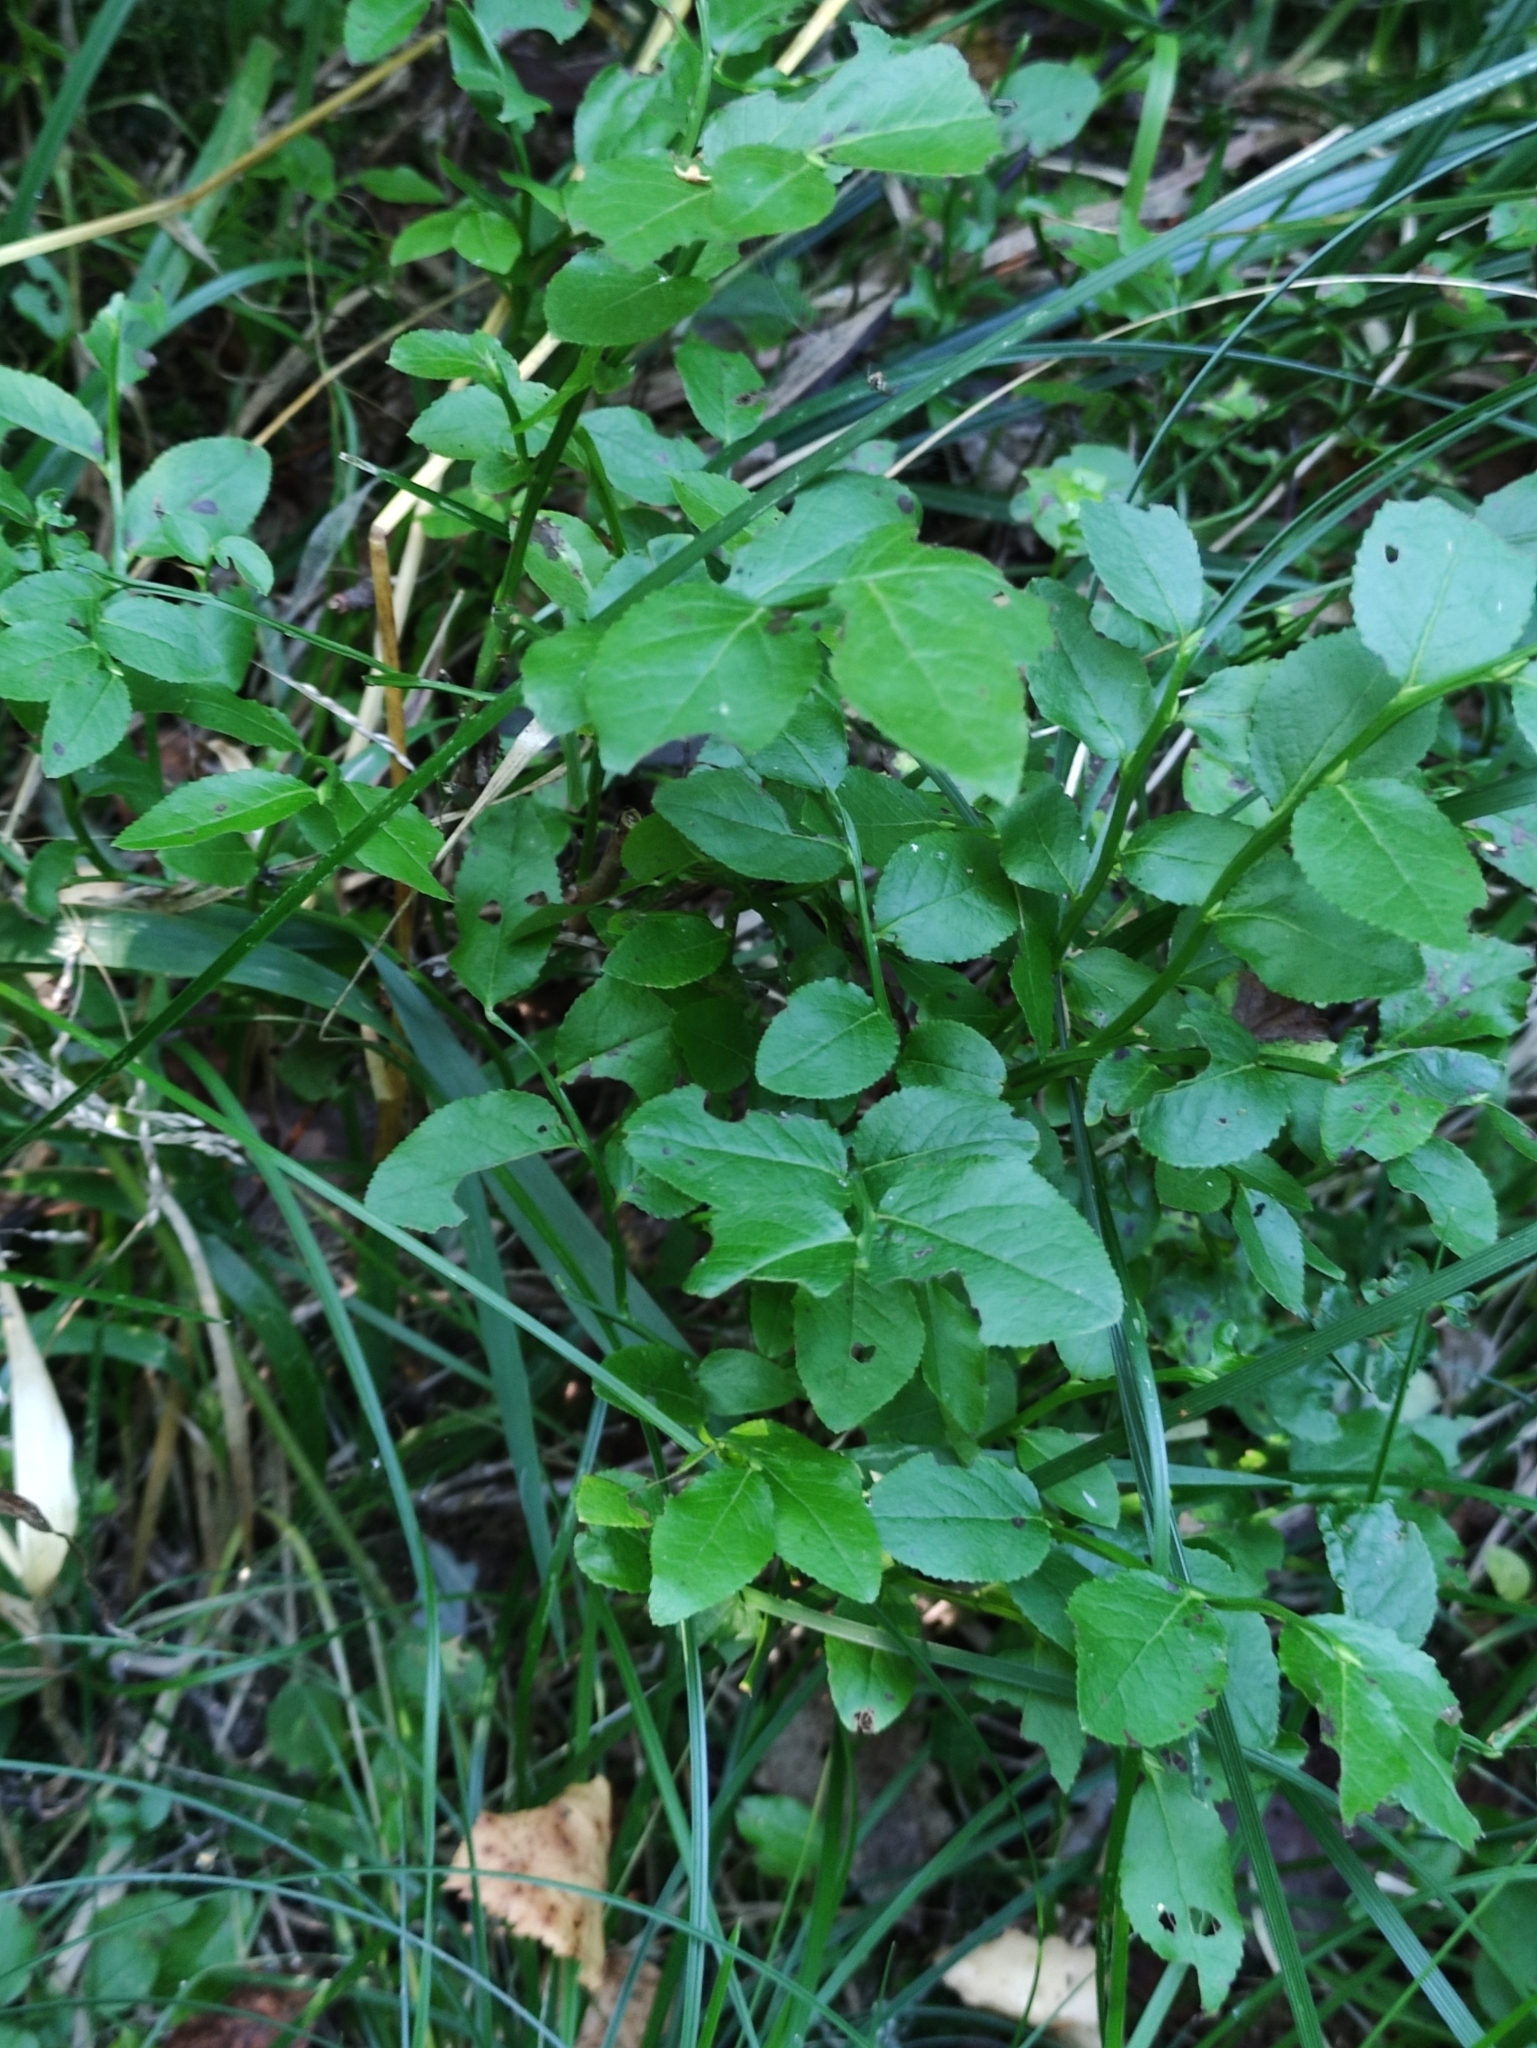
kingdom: Plantae
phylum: Tracheophyta
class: Magnoliopsida
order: Ericales
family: Ericaceae
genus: Vaccinium
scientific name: Vaccinium myrtillus
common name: Bilberry
